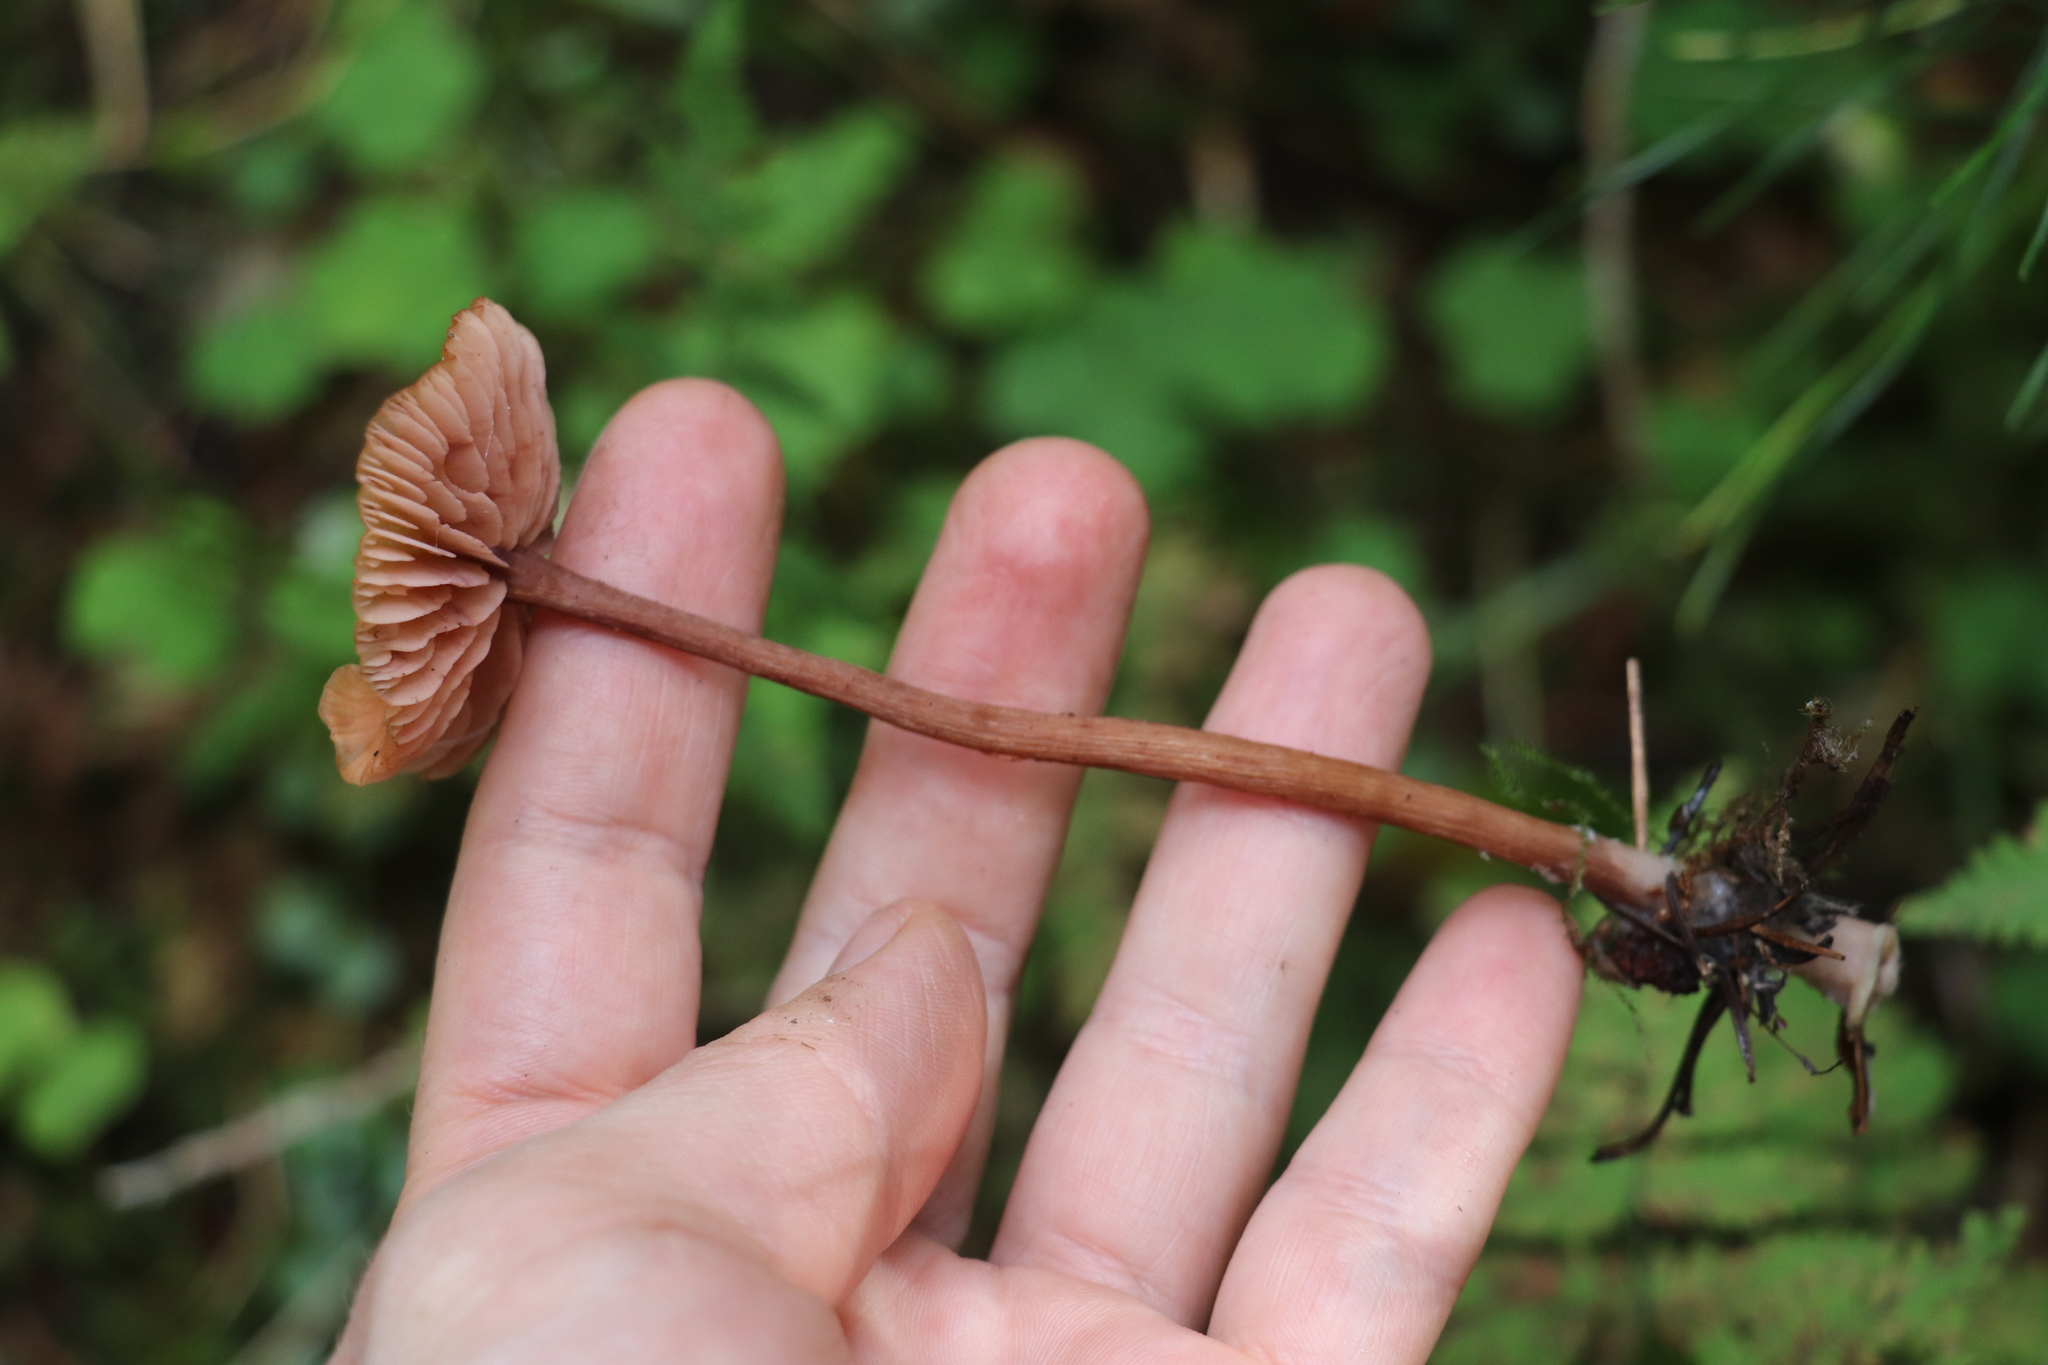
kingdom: Fungi
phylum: Basidiomycota
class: Agaricomycetes
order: Agaricales
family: Hydnangiaceae
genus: Laccaria
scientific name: Laccaria proxima
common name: Scurfy deceiver
